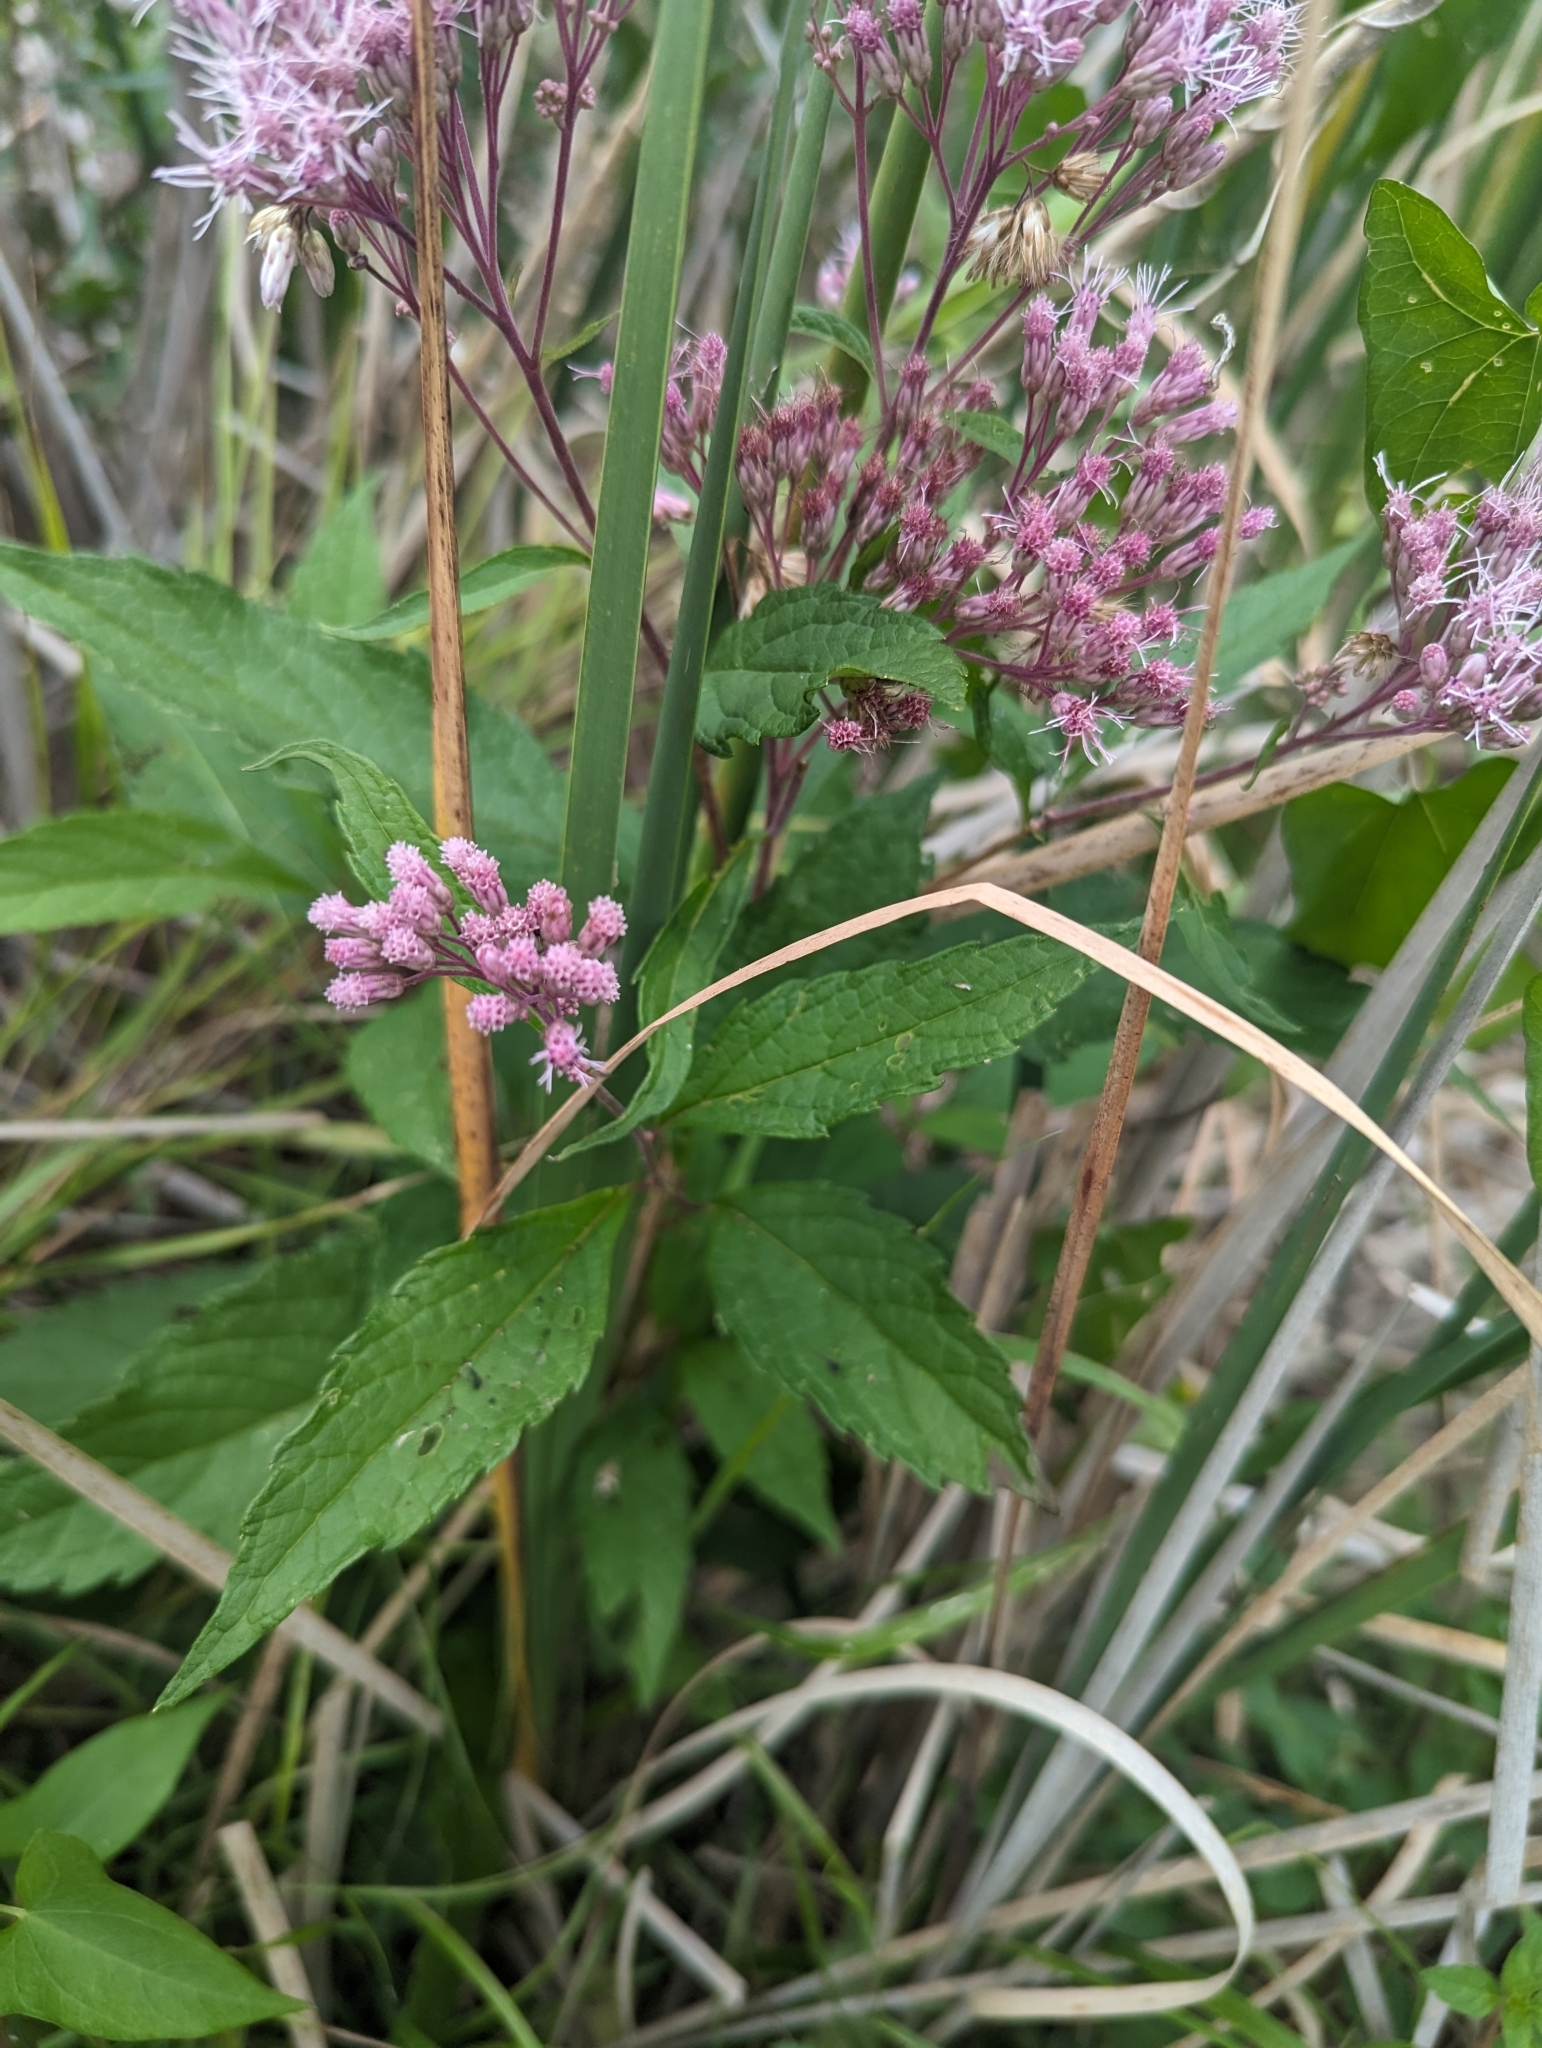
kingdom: Plantae
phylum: Tracheophyta
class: Magnoliopsida
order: Asterales
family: Asteraceae
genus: Eutrochium
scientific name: Eutrochium maculatum
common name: Spotted joe pye weed
